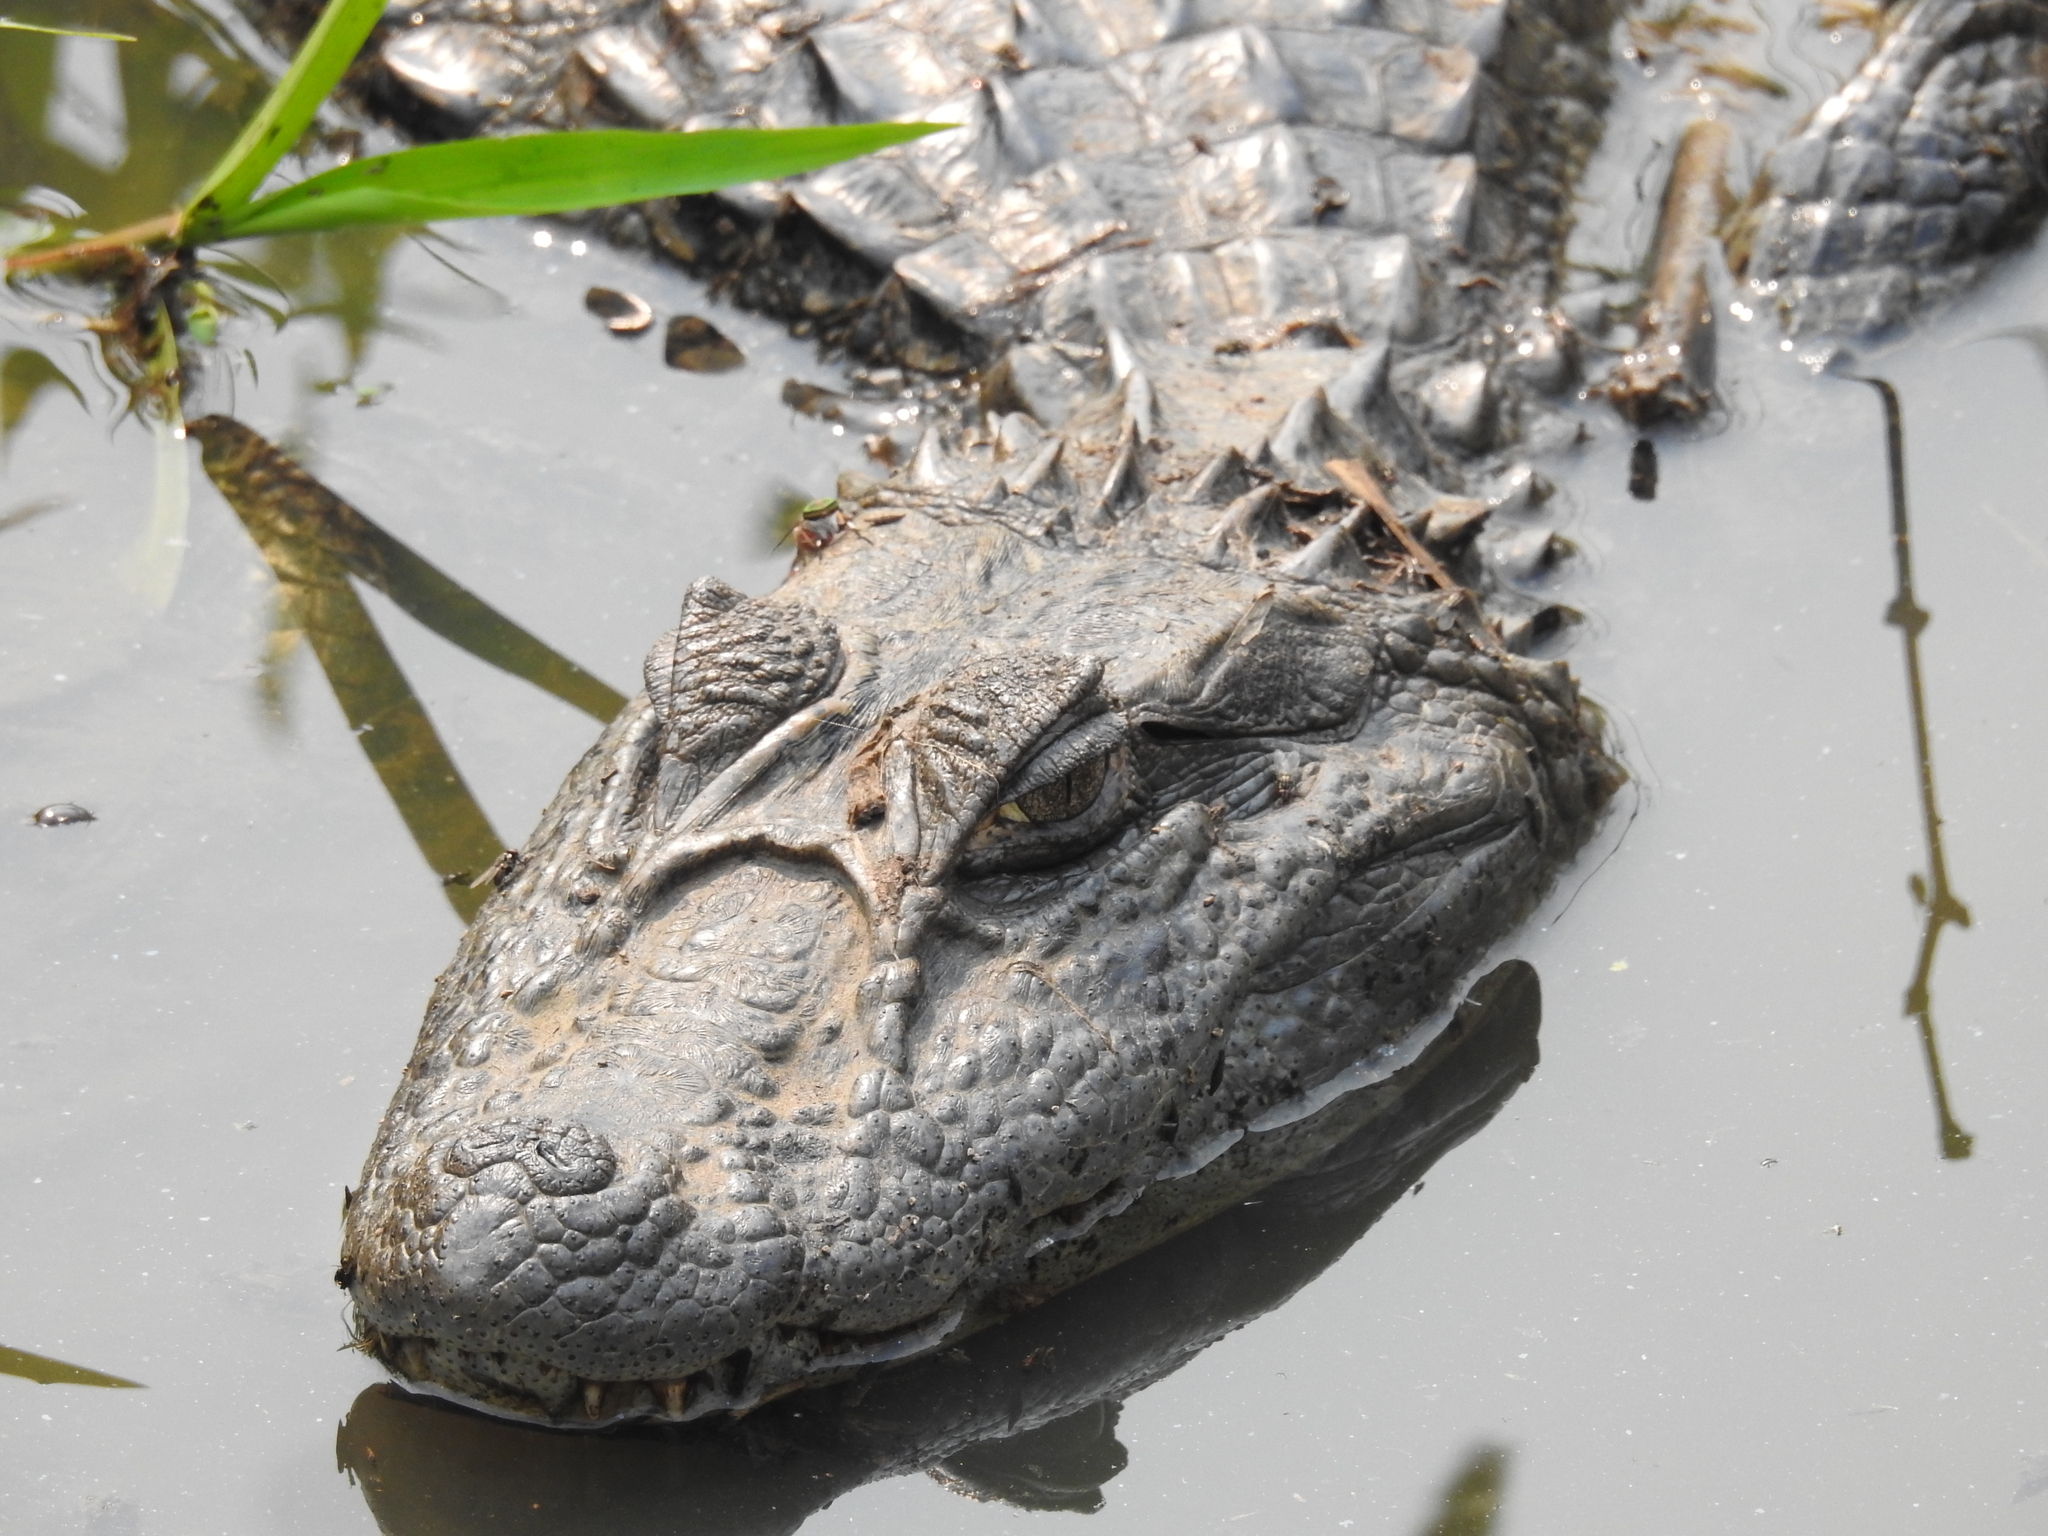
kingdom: Animalia
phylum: Chordata
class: Crocodylia
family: Alligatoridae
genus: Caiman
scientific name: Caiman latirostris
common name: Broad-snouted caiman
